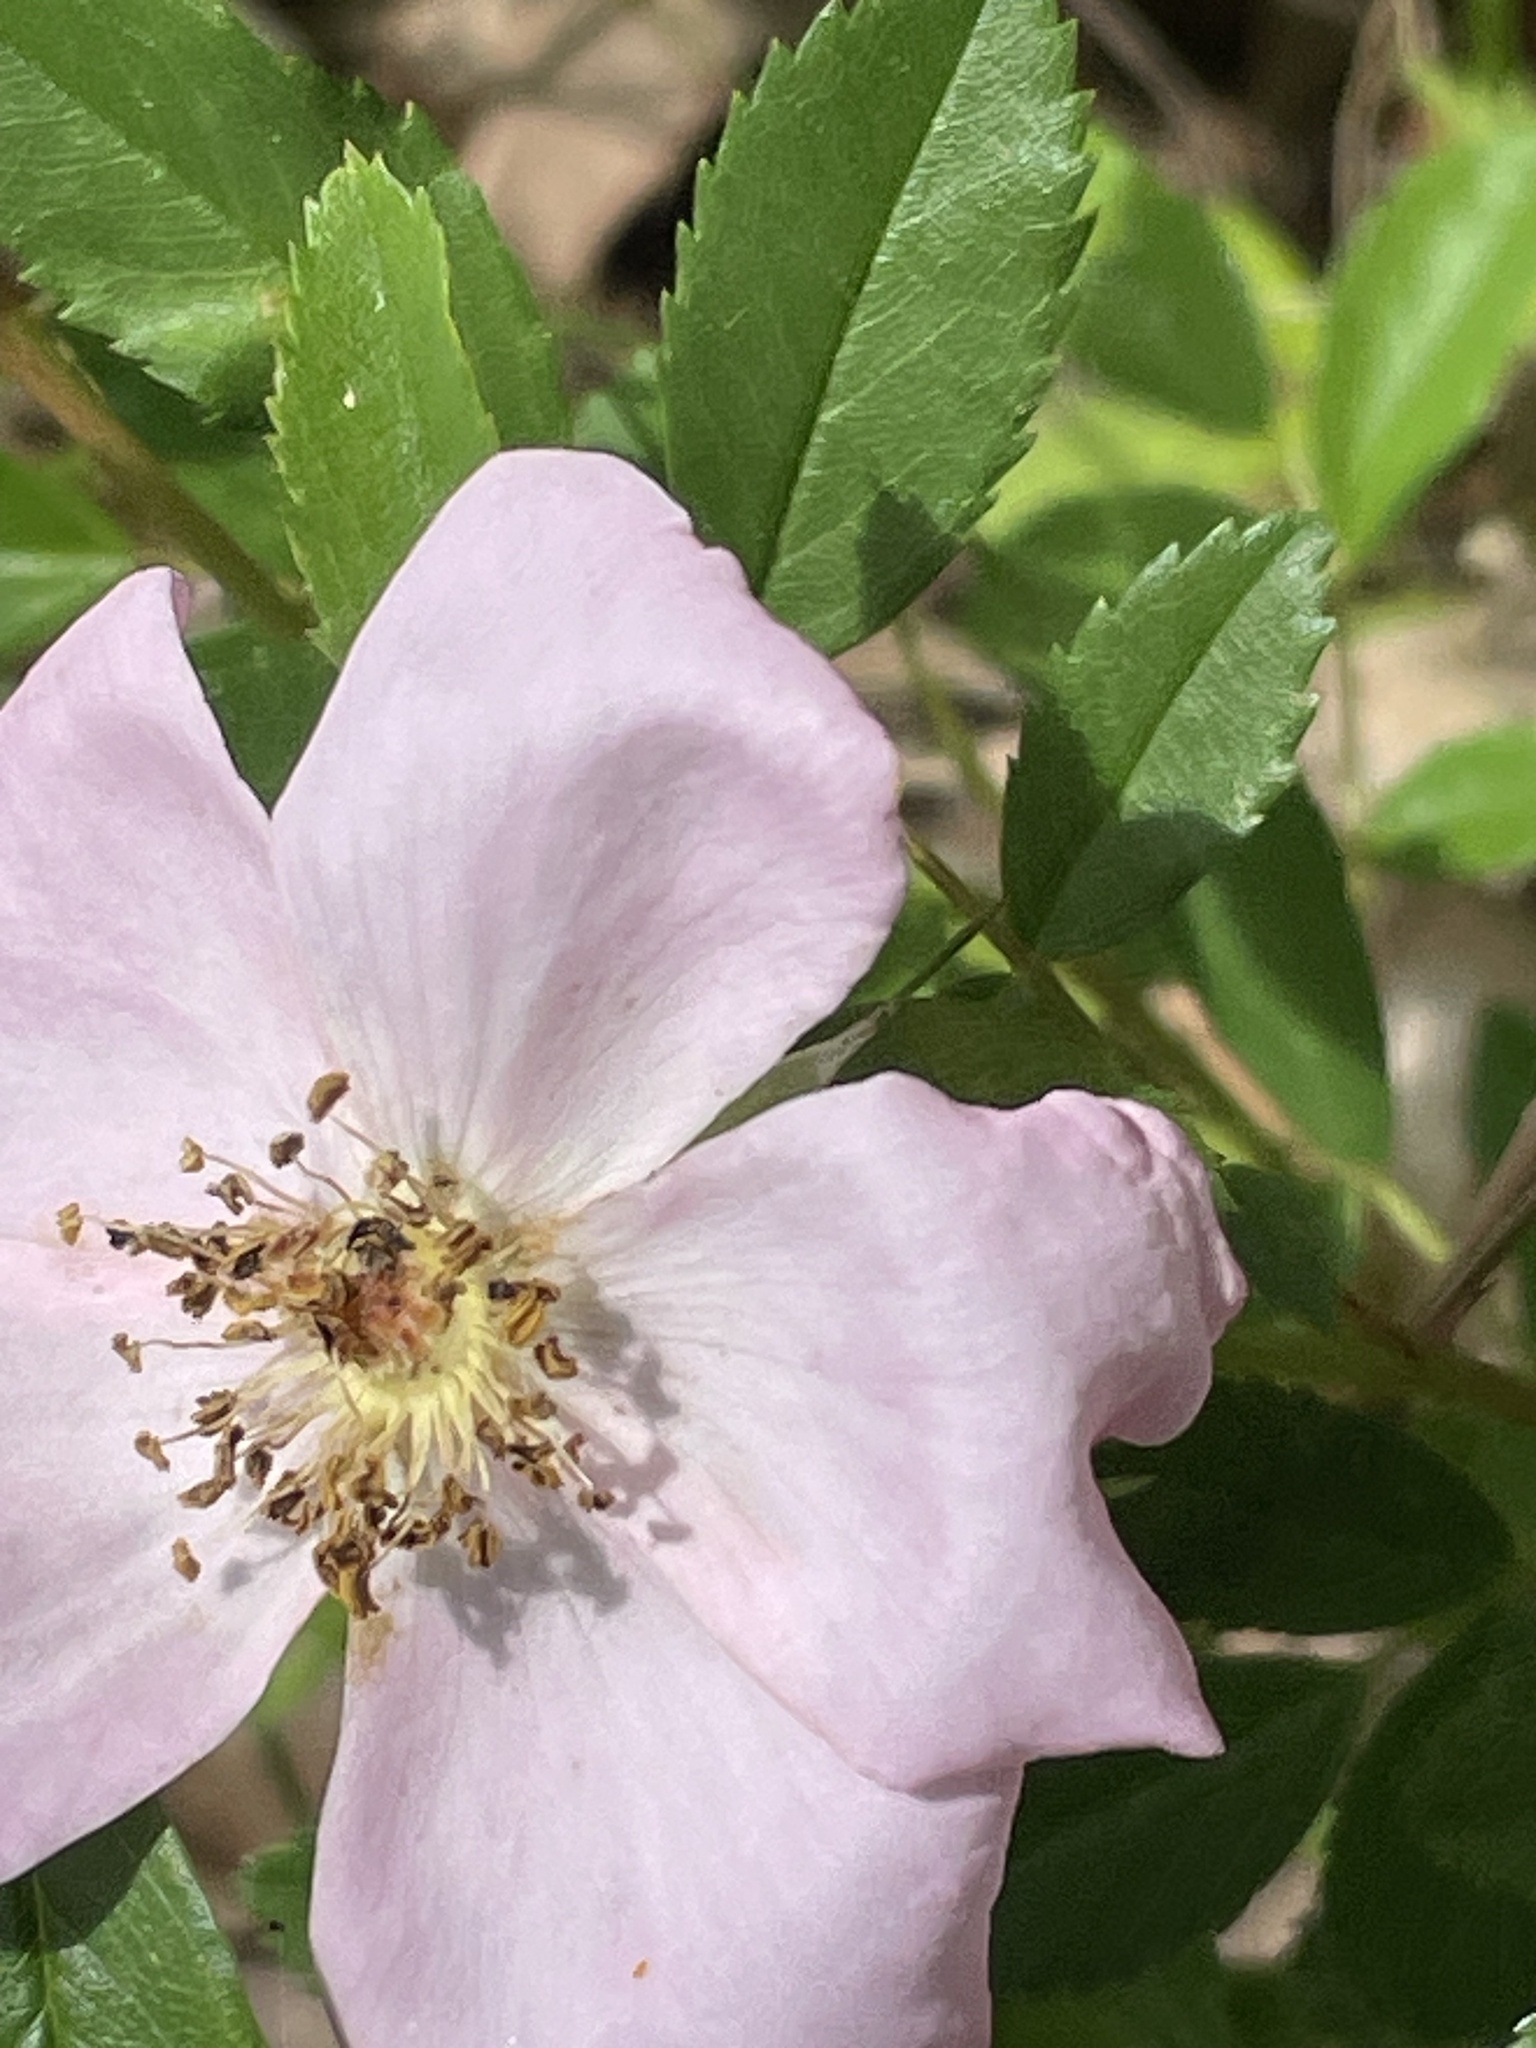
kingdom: Plantae
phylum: Tracheophyta
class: Magnoliopsida
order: Rosales
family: Rosaceae
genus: Rosa
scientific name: Rosa carolina
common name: Pasture rose
